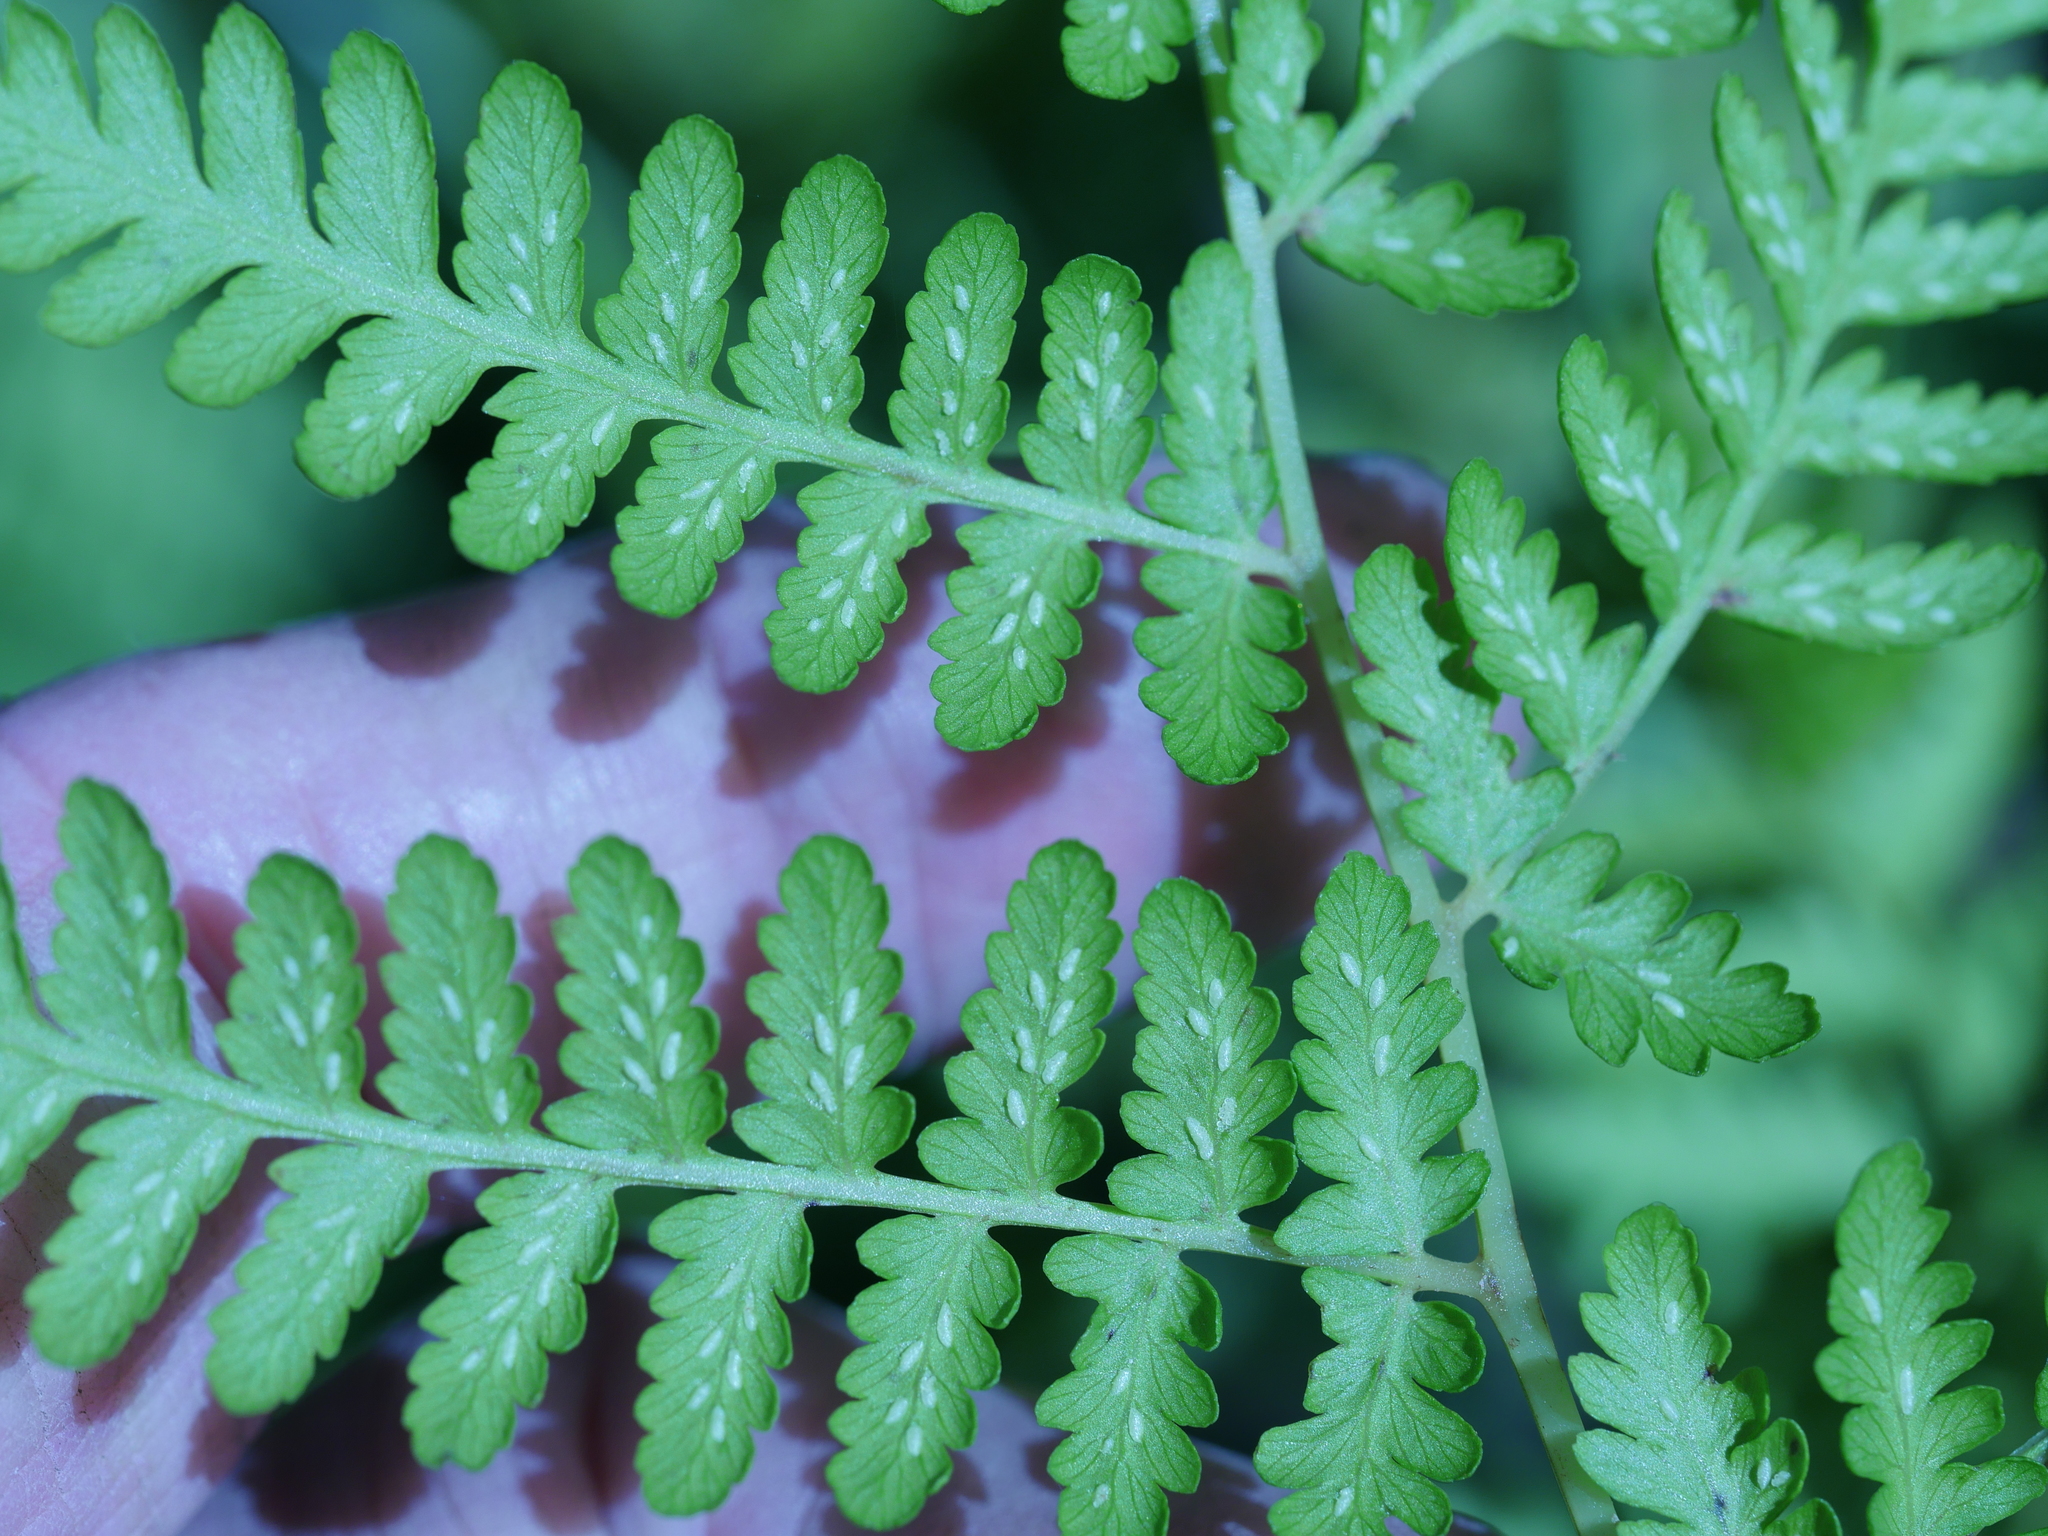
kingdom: Plantae
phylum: Tracheophyta
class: Polypodiopsida
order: Polypodiales
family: Athyriaceae
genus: Diplazium
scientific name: Diplazium australe
